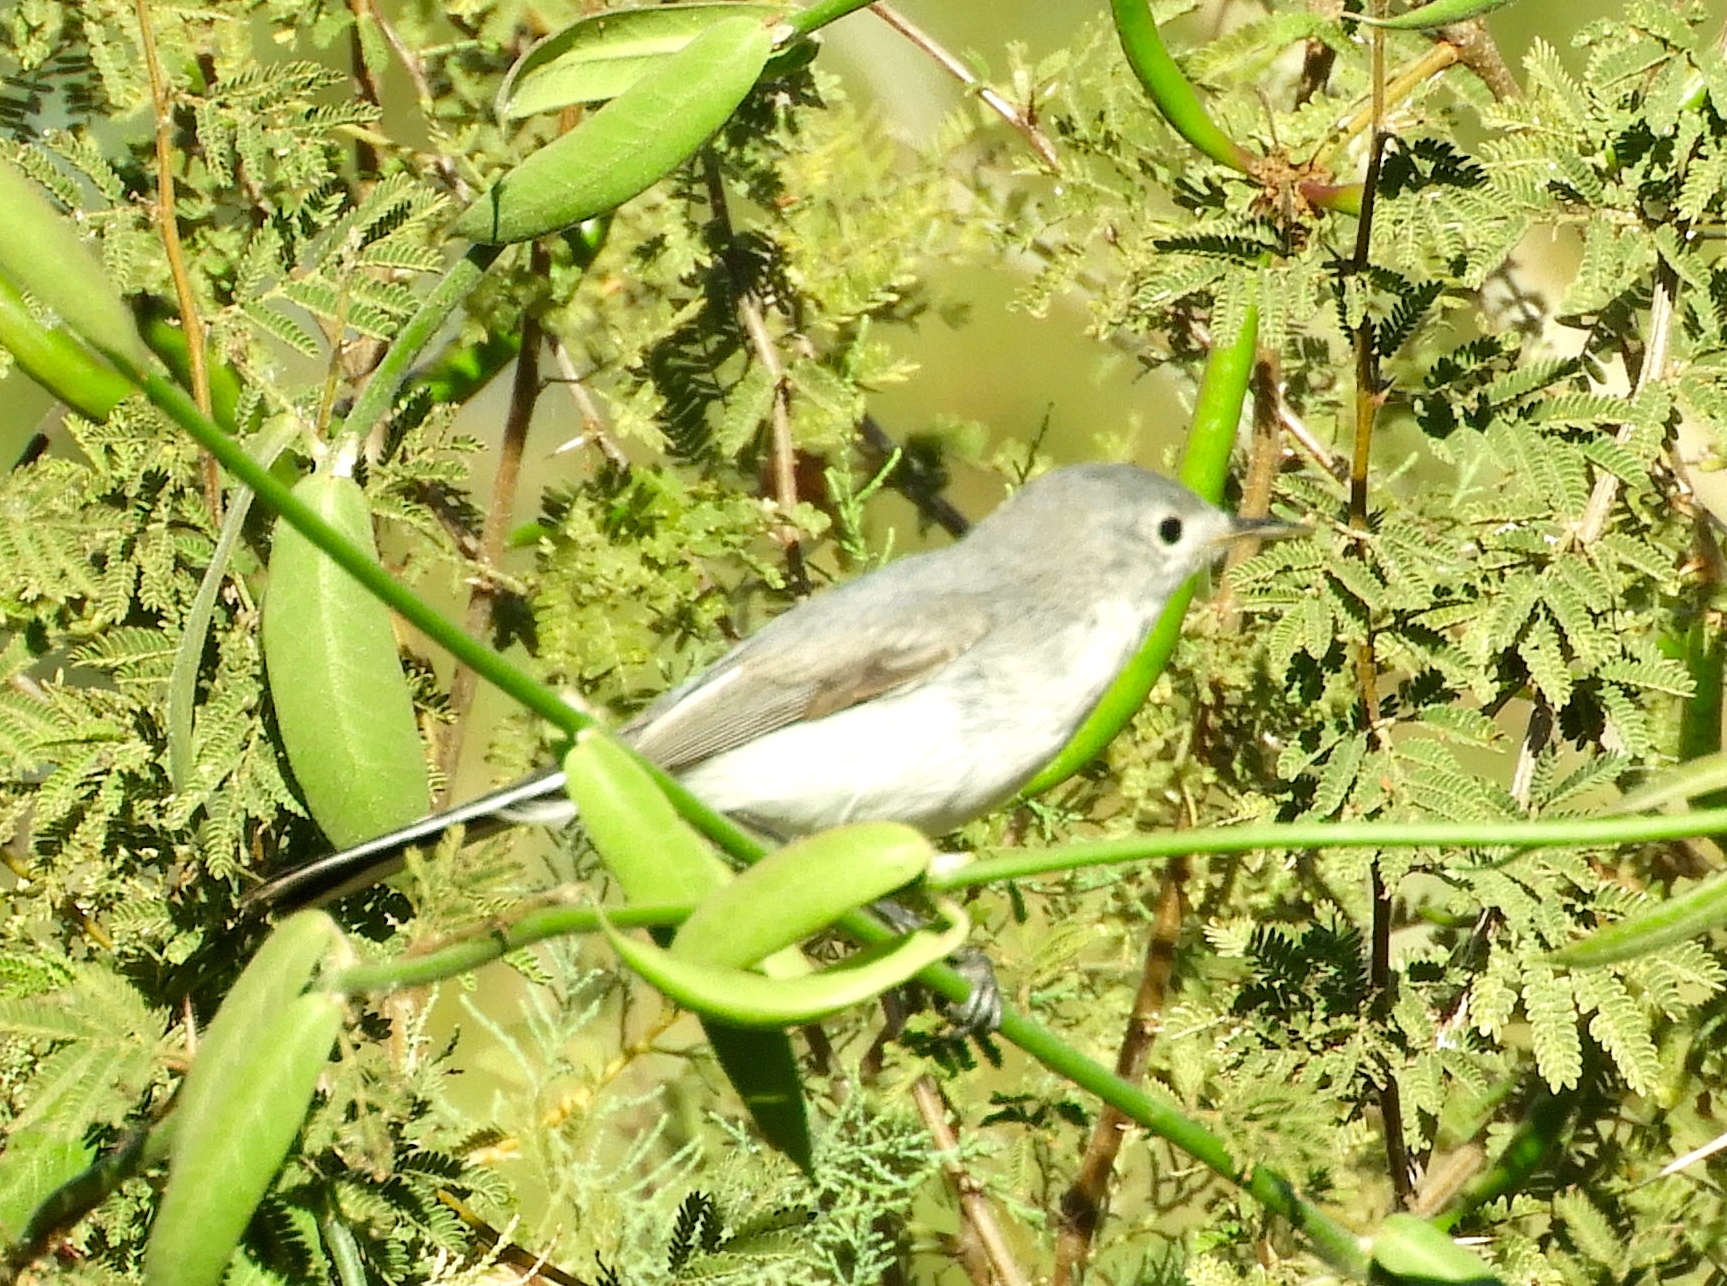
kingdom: Animalia
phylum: Chordata
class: Aves
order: Passeriformes
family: Polioptilidae
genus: Polioptila
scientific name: Polioptila caerulea
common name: Blue-gray gnatcatcher
